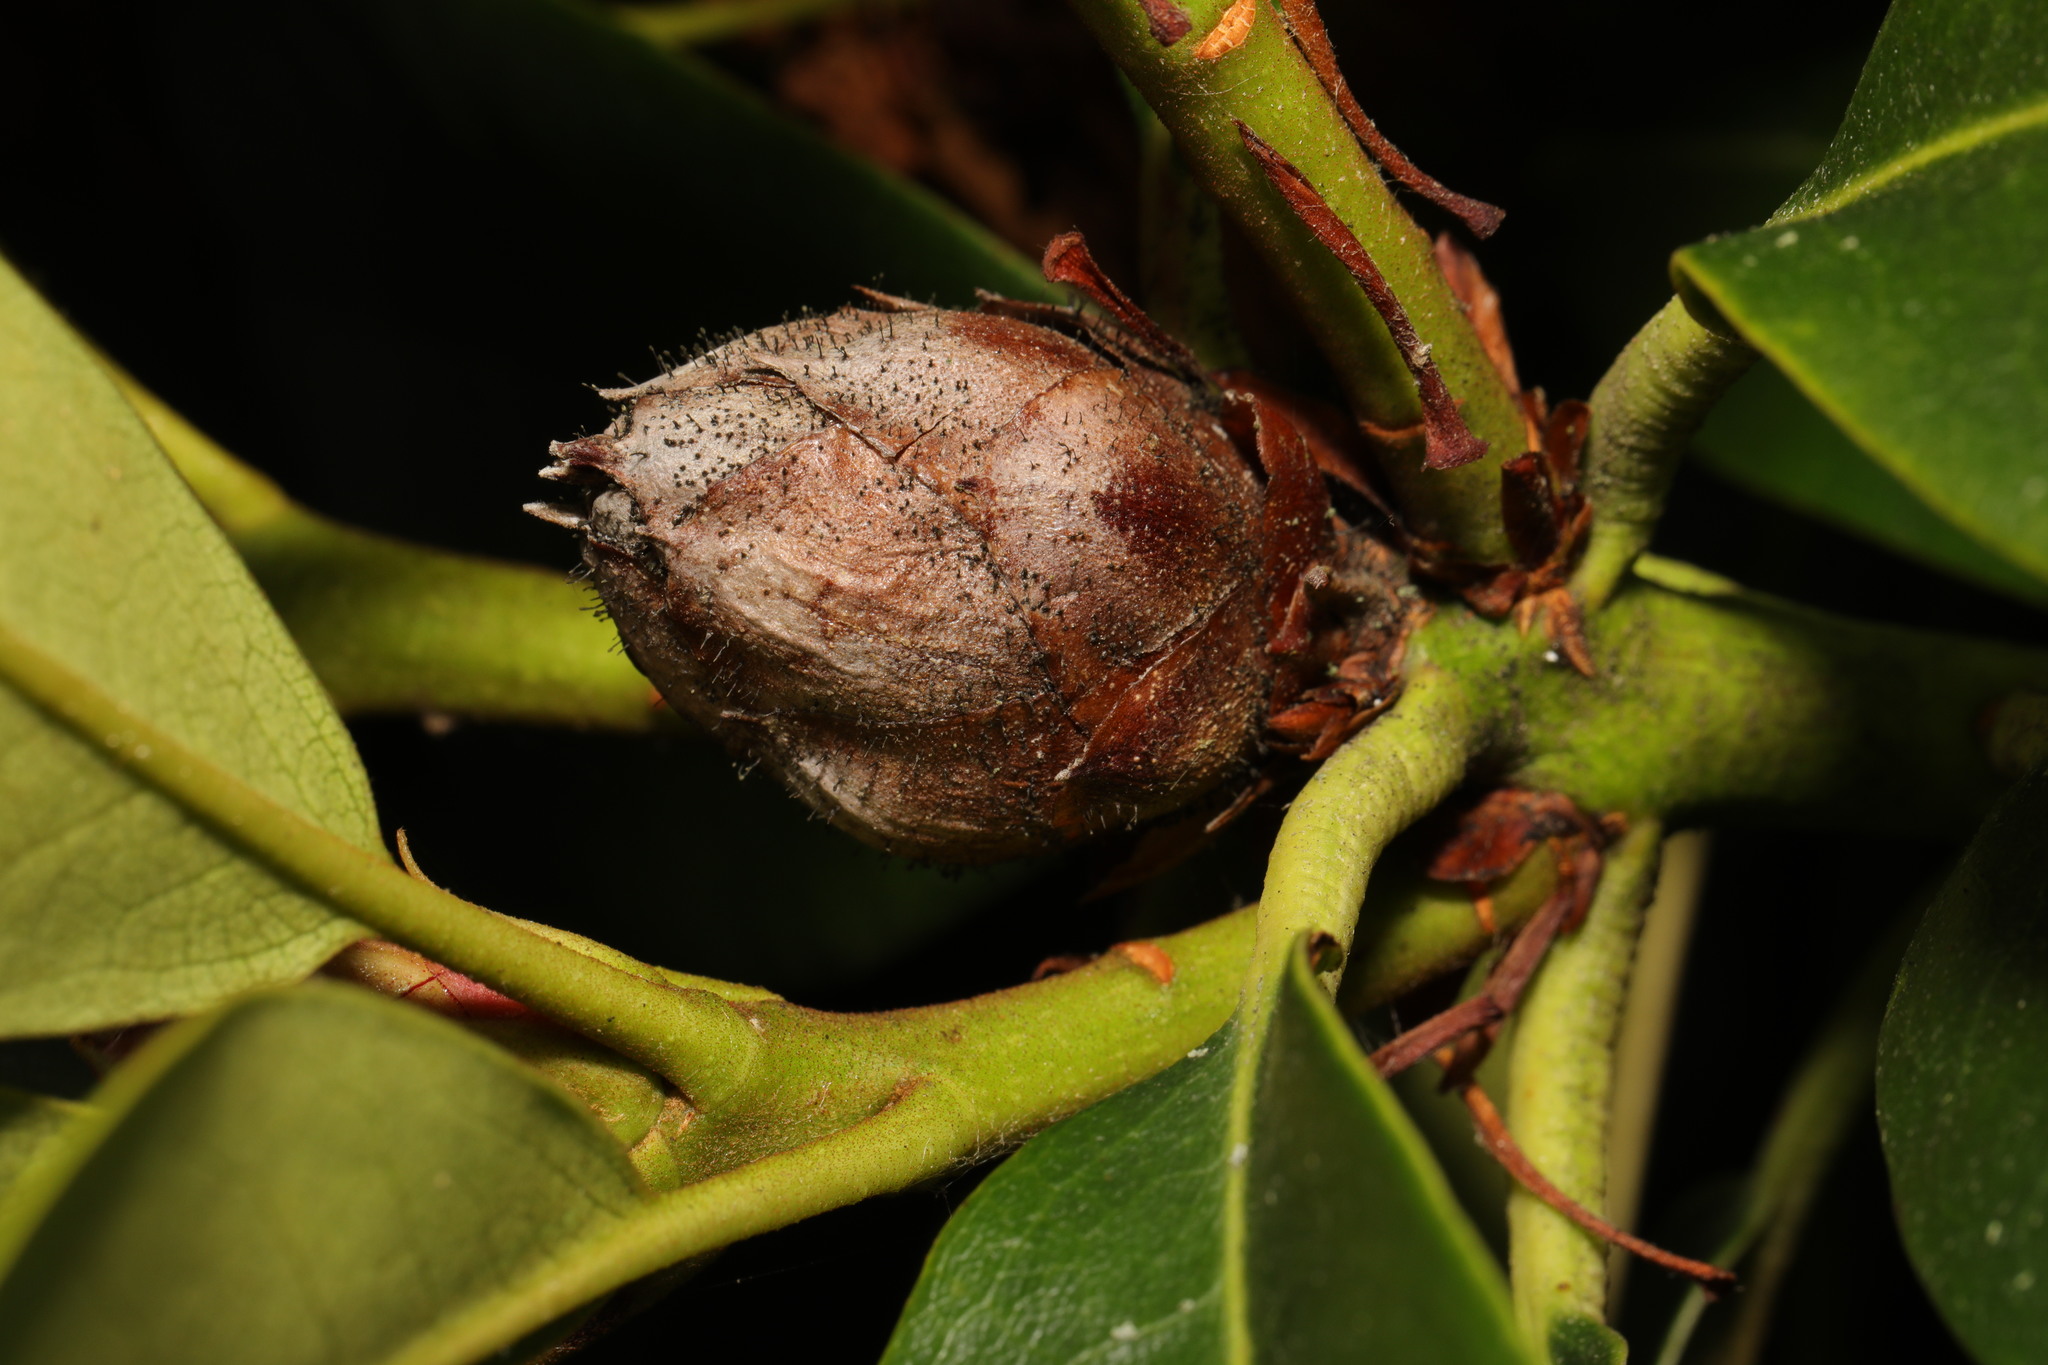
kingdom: Fungi
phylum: Ascomycota
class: Dothideomycetes
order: Pleosporales
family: Melanommataceae
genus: Seifertia
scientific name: Seifertia azaleae
